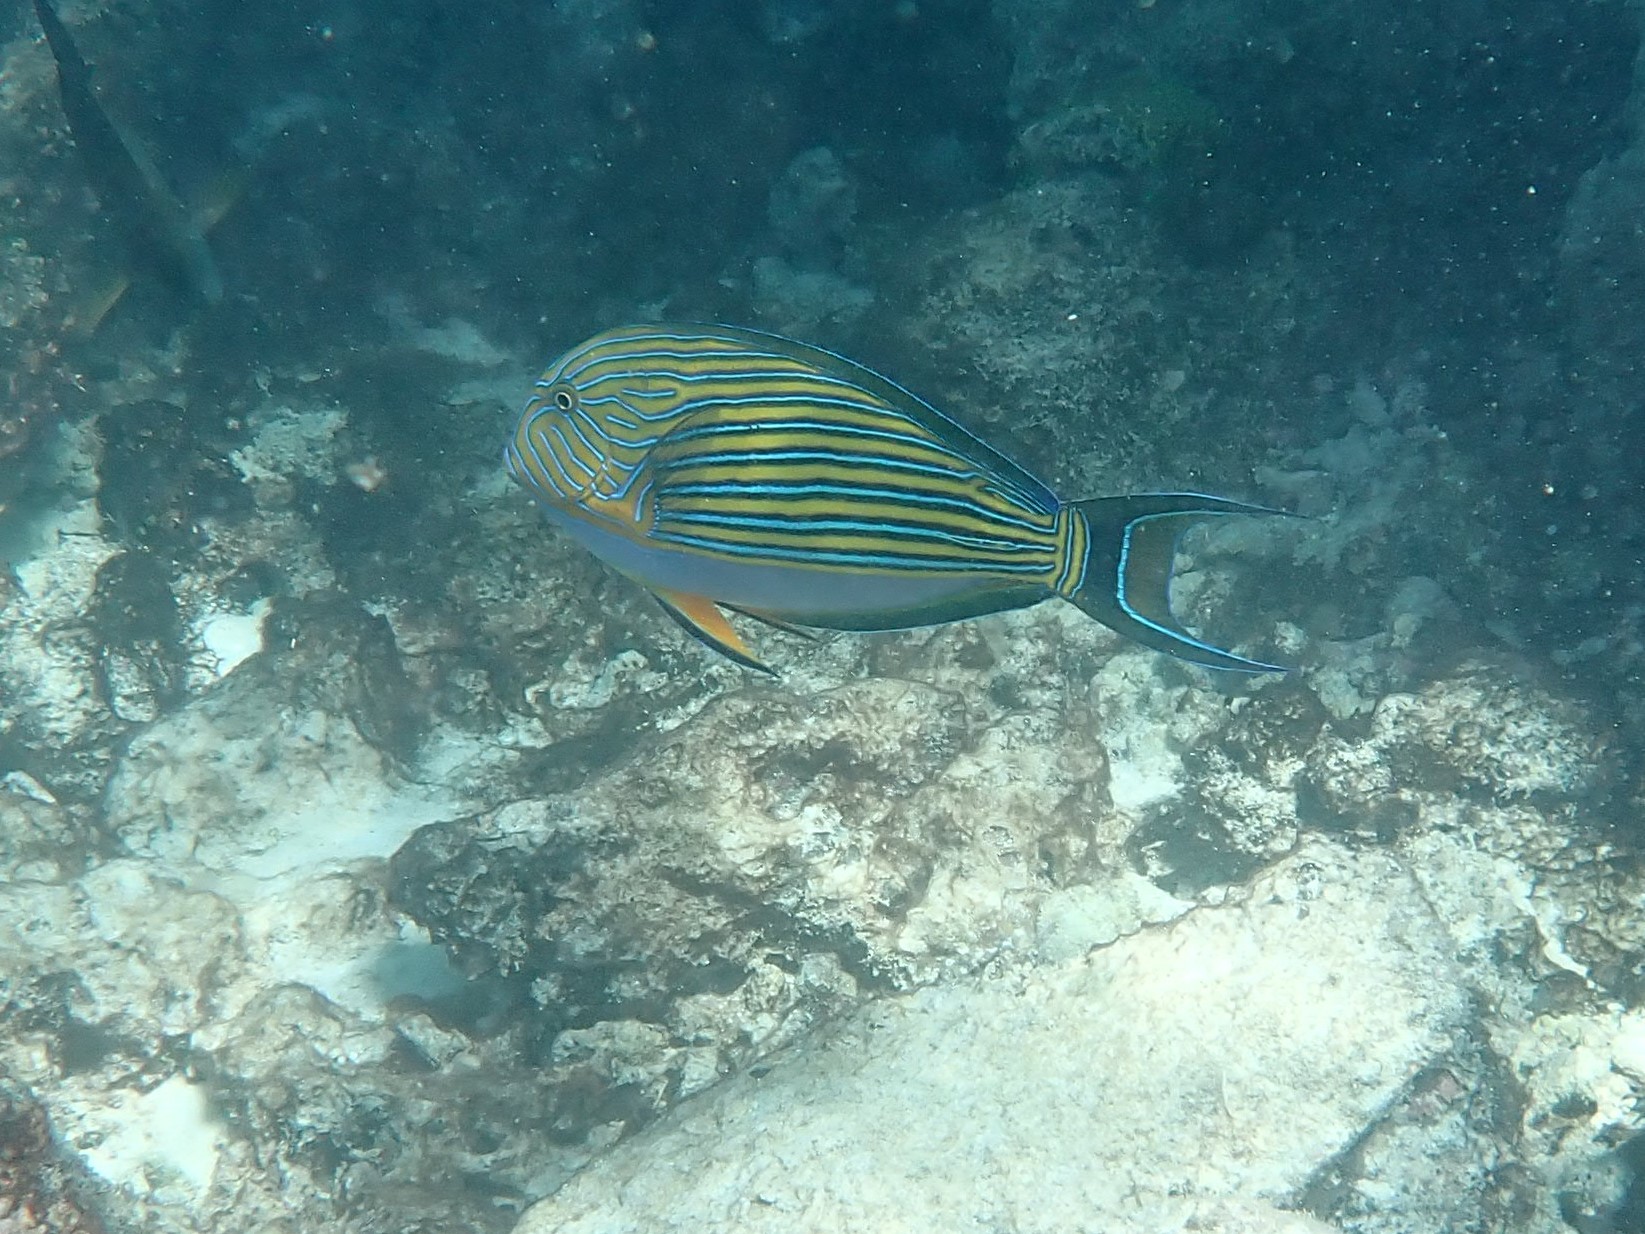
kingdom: Animalia
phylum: Chordata
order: Perciformes
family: Acanthuridae
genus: Acanthurus
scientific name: Acanthurus lineatus
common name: Striped surgeonfish
